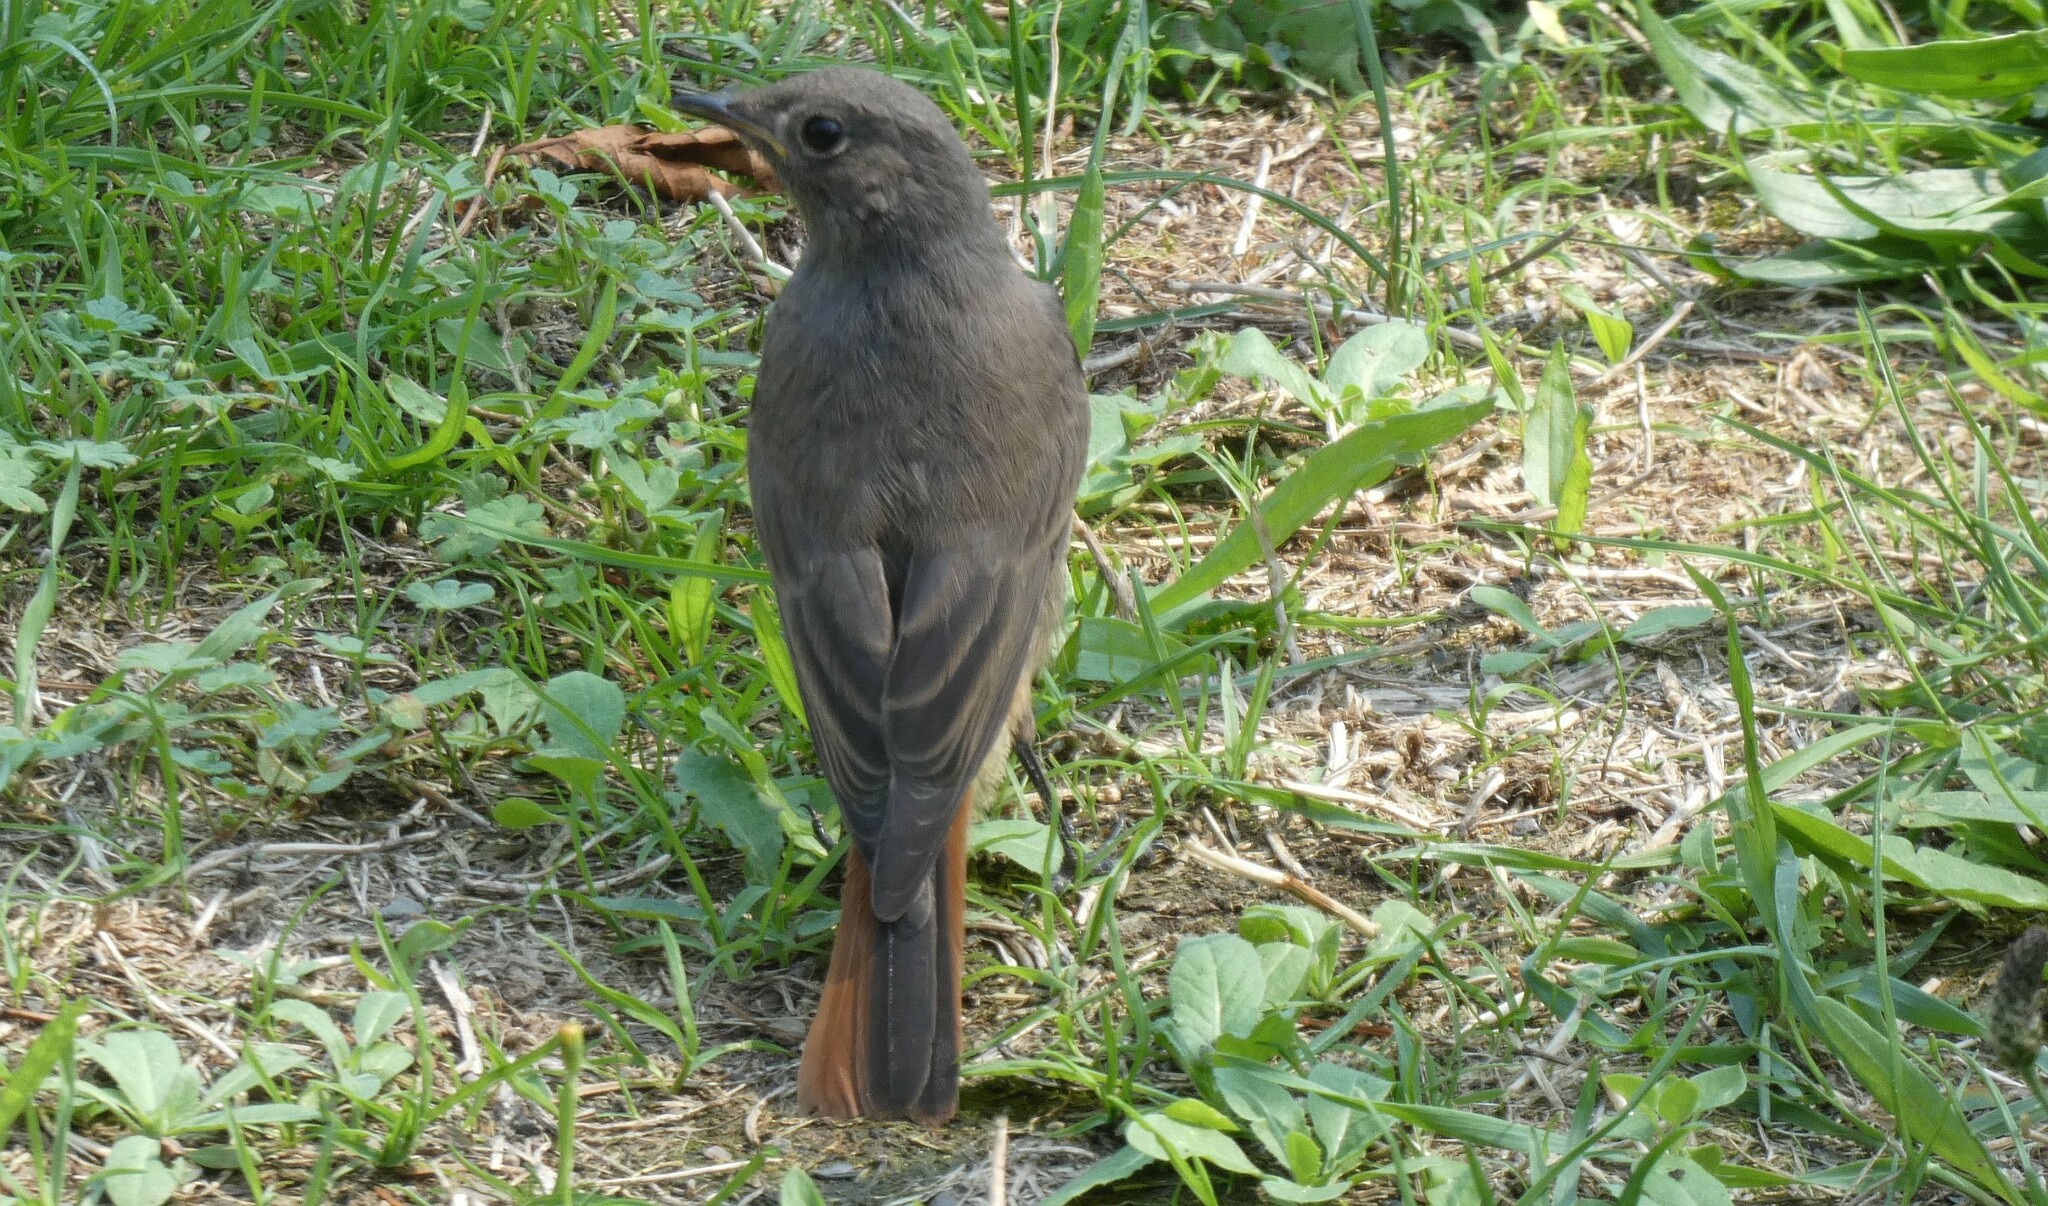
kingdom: Animalia
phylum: Chordata
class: Aves
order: Passeriformes
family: Muscicapidae
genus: Phoenicurus
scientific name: Phoenicurus ochruros
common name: Black redstart
